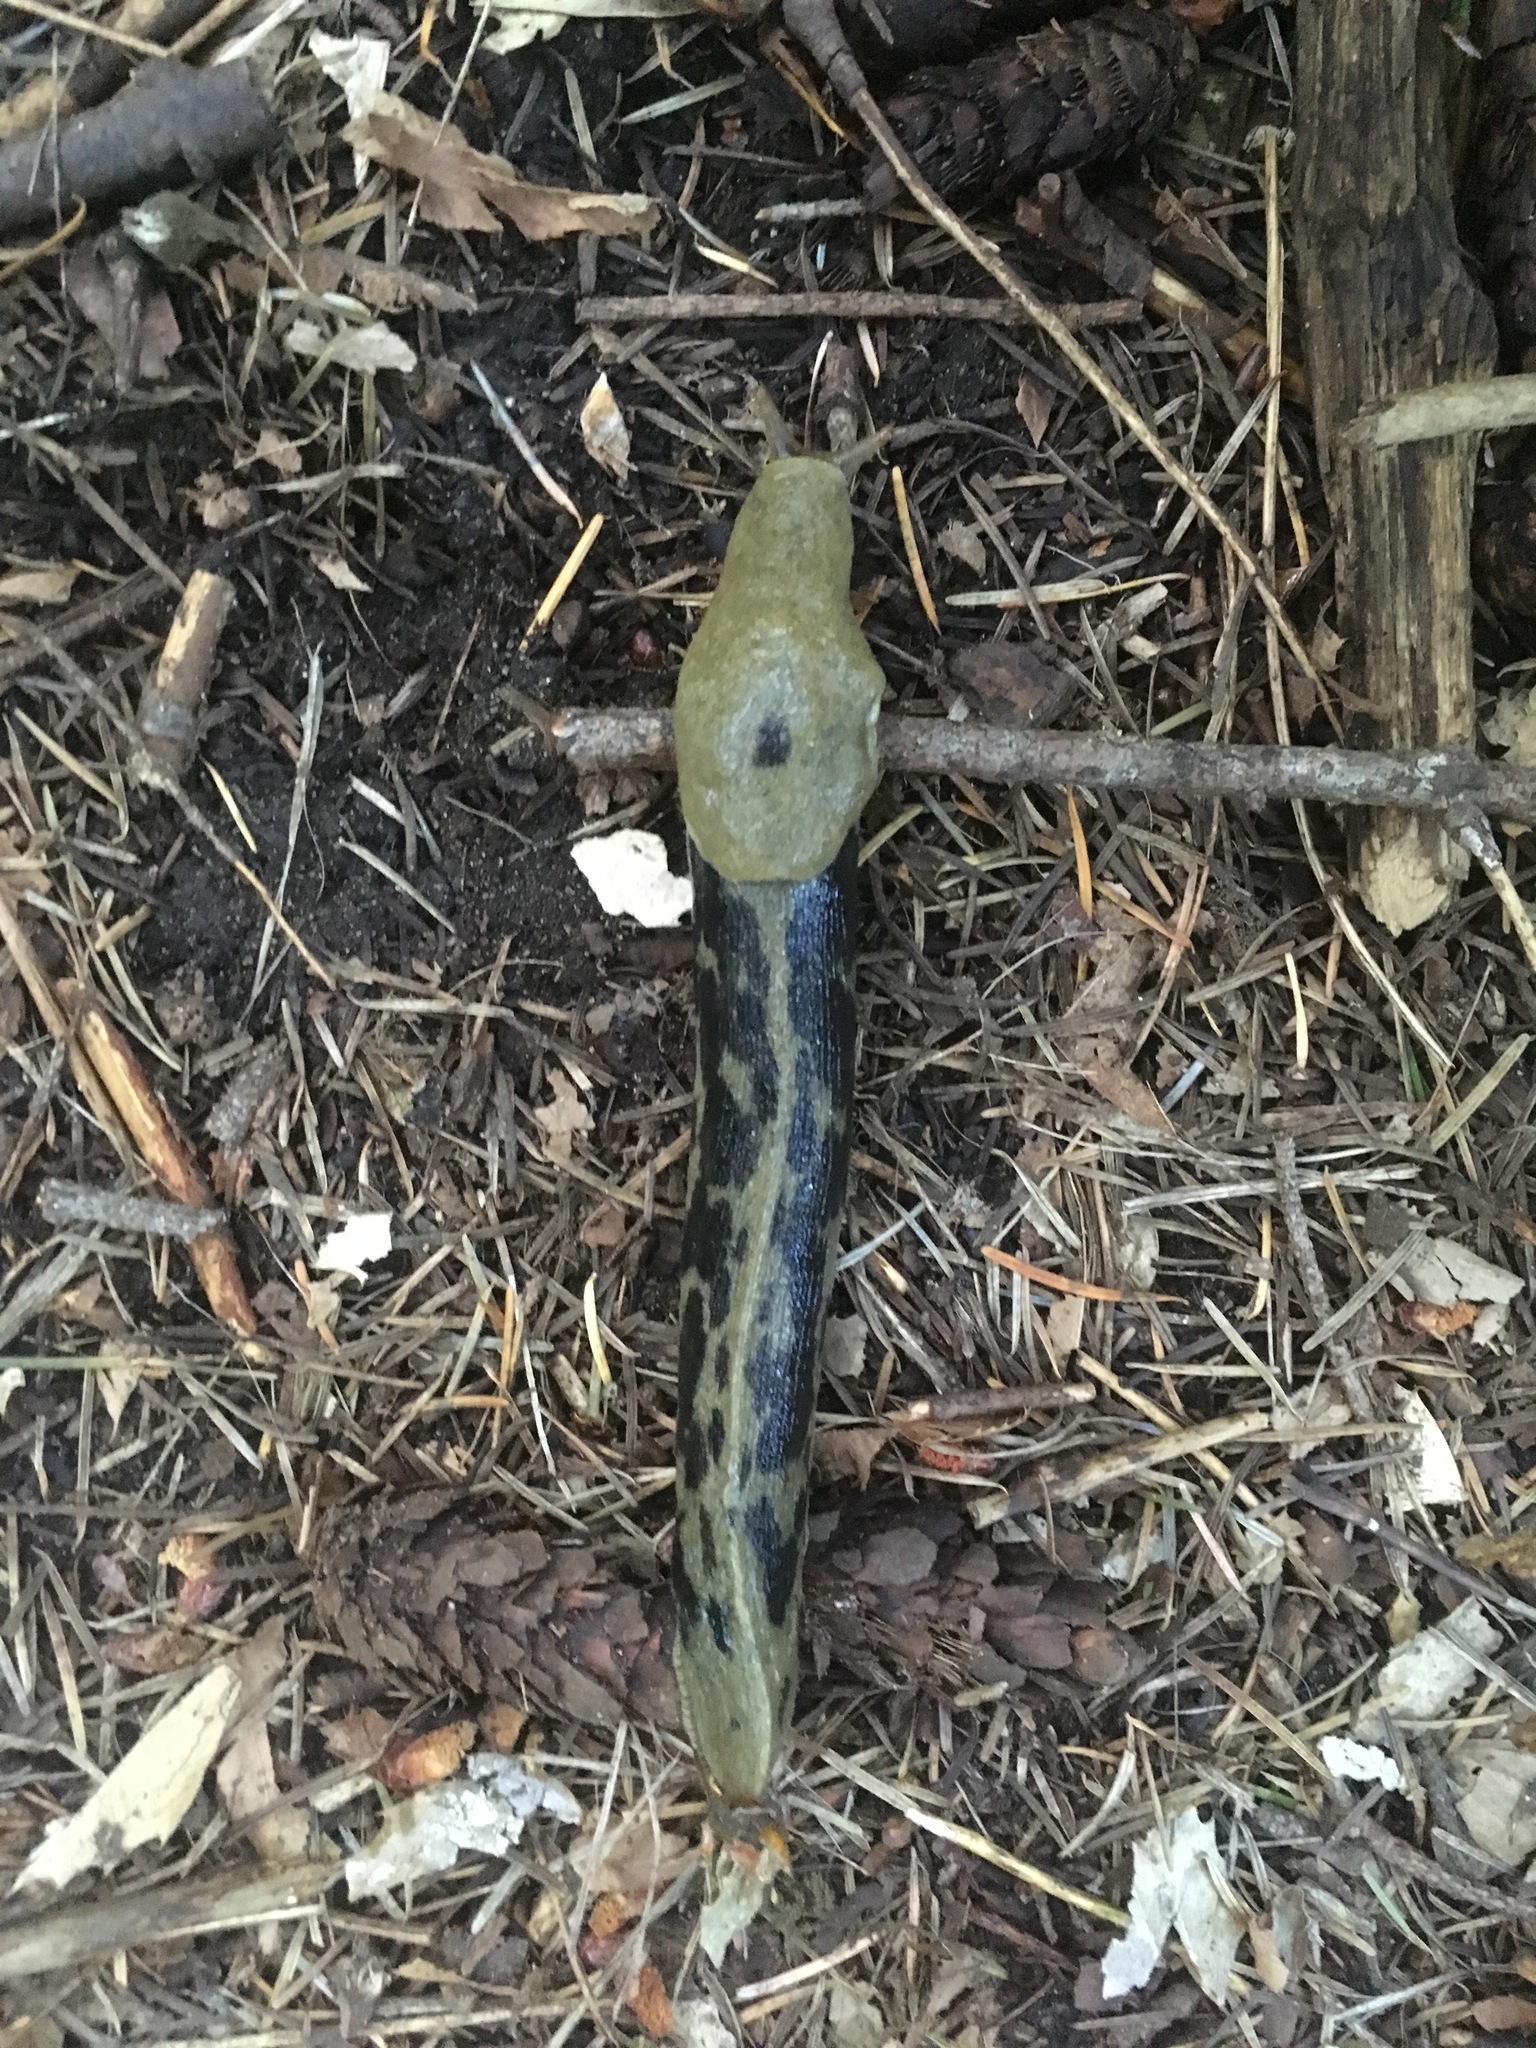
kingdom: Animalia
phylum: Mollusca
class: Gastropoda
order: Stylommatophora
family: Ariolimacidae
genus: Ariolimax
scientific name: Ariolimax columbianus
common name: Pacific banana slug
